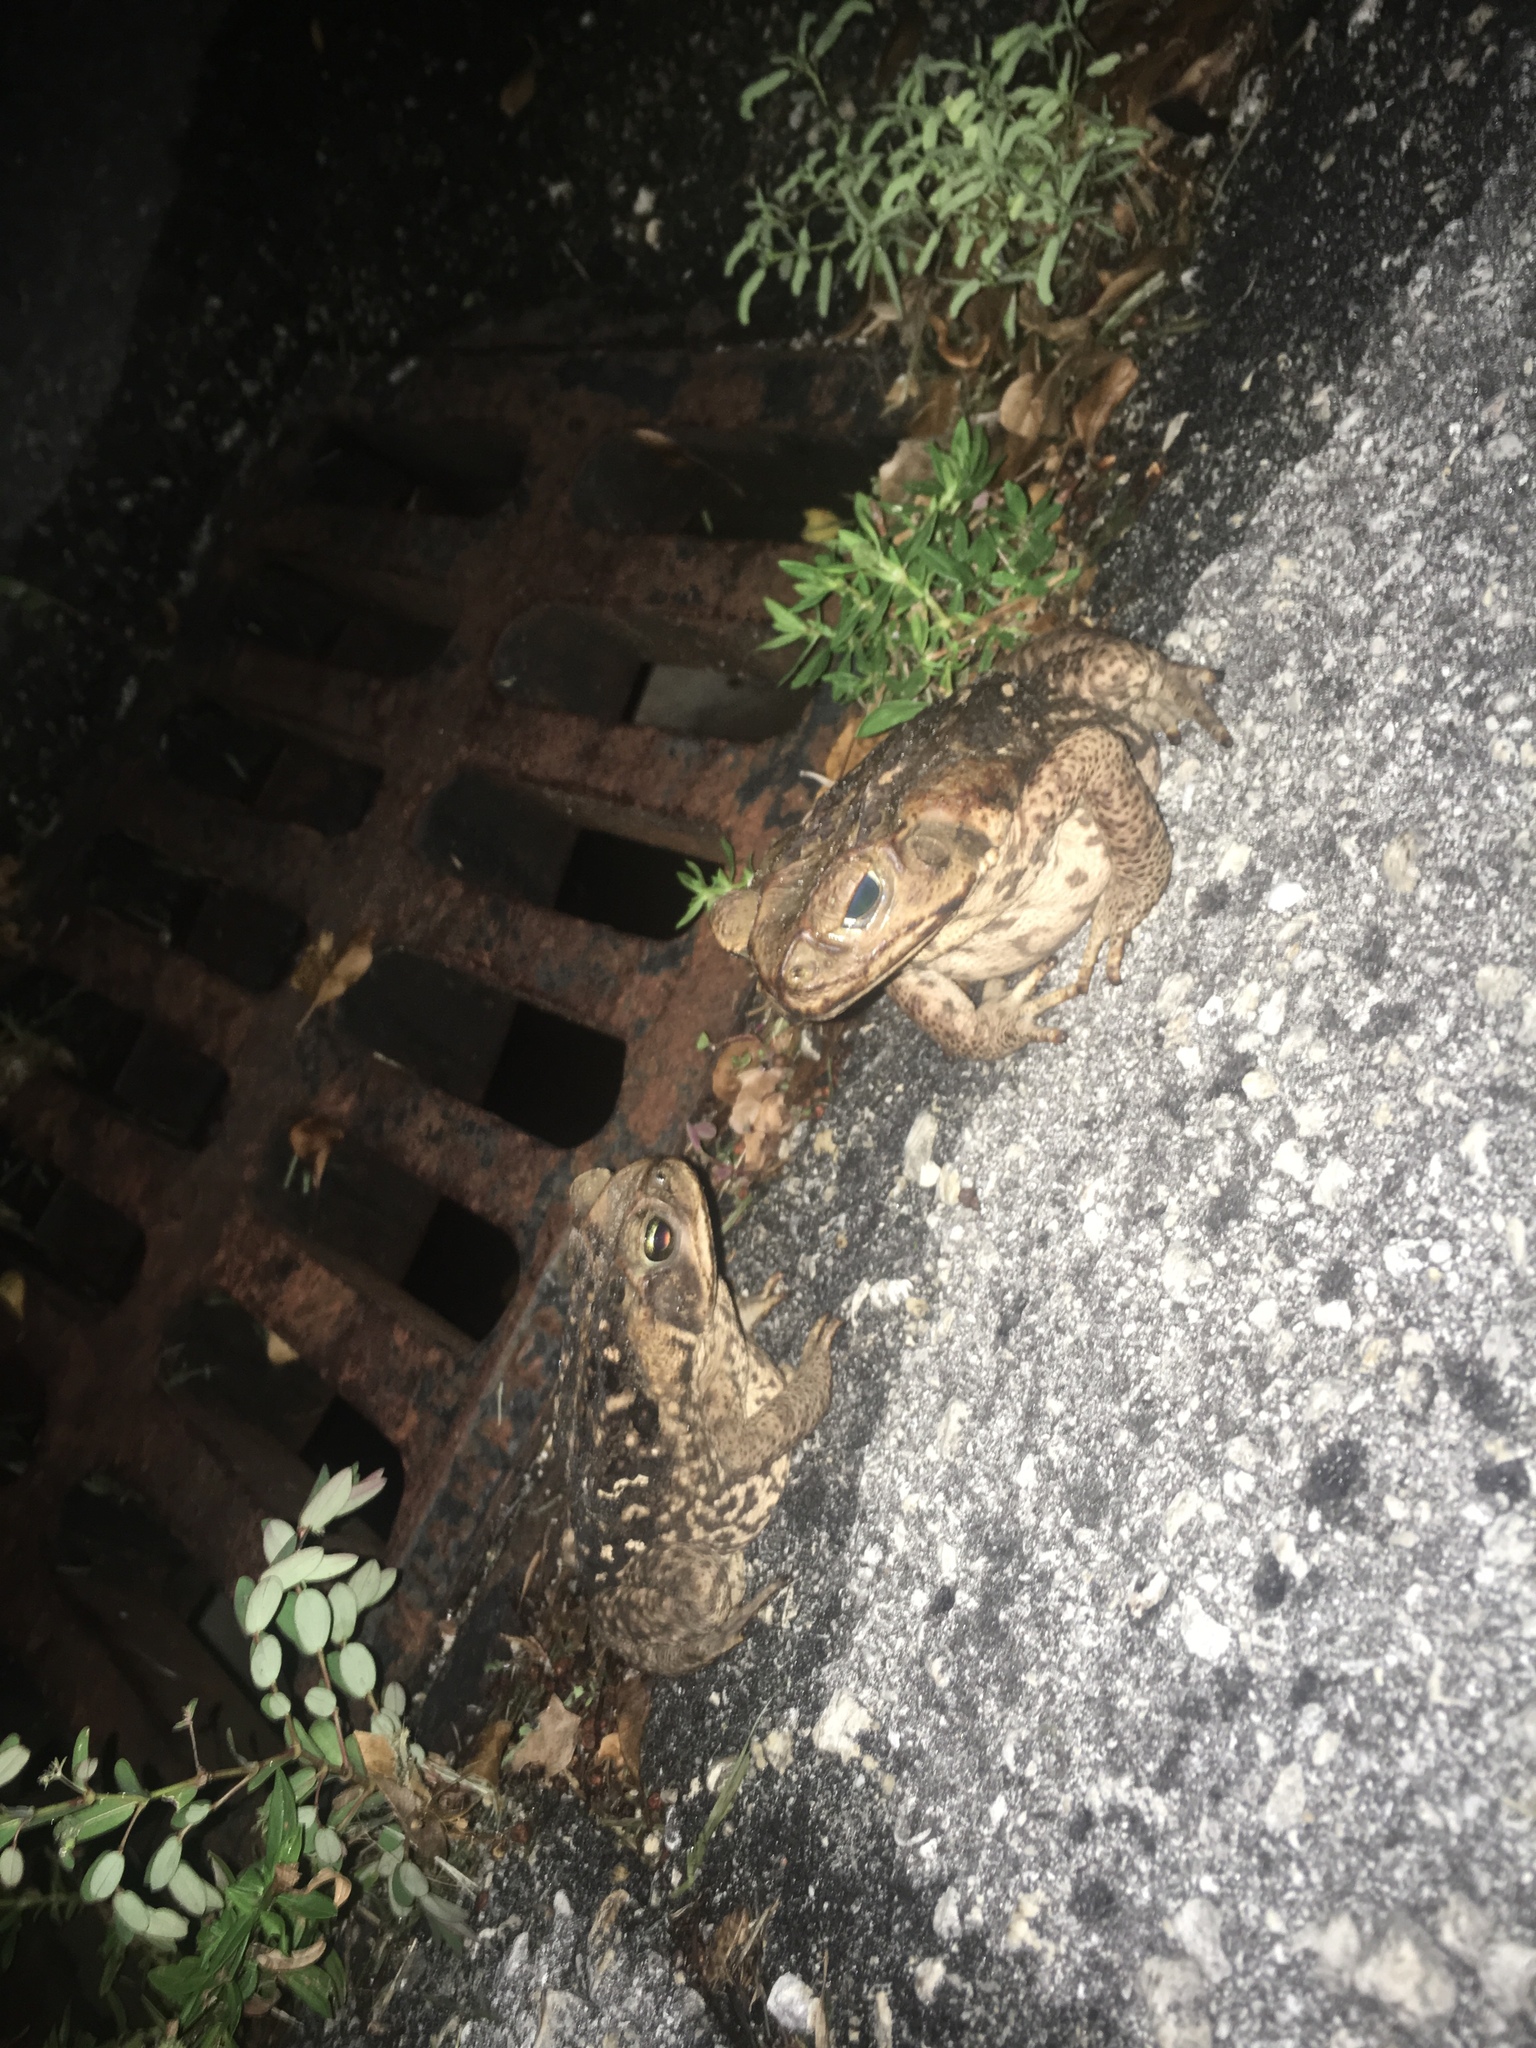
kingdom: Animalia
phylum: Chordata
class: Amphibia
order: Anura
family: Bufonidae
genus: Rhinella
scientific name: Rhinella marina
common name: Cane toad
